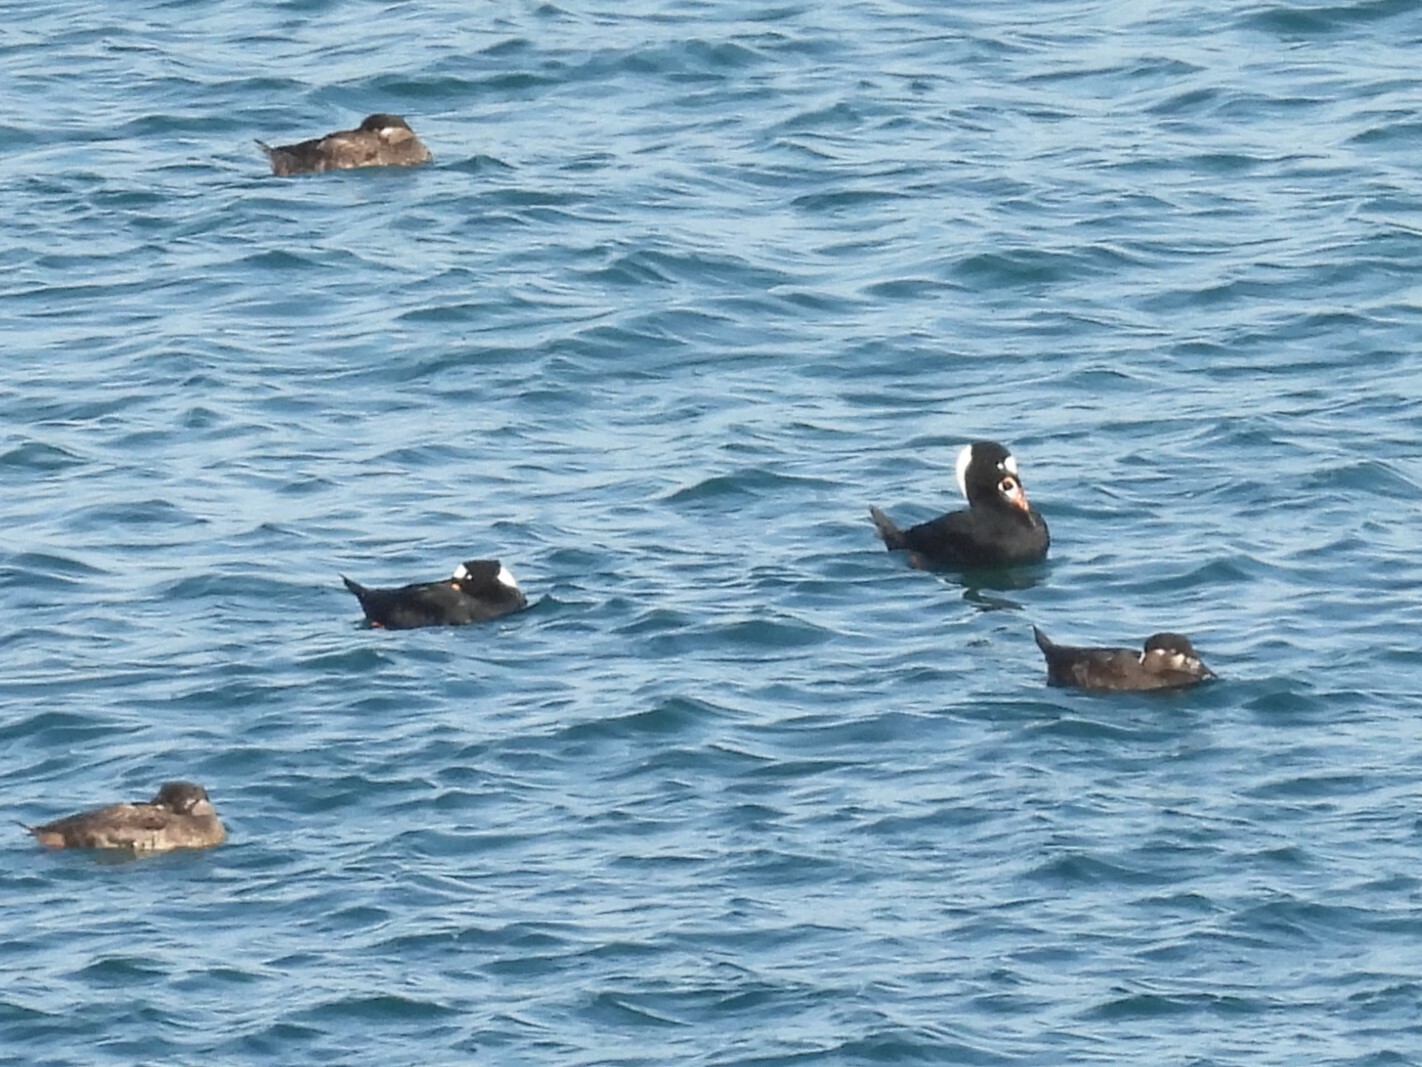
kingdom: Animalia
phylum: Chordata
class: Aves
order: Anseriformes
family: Anatidae
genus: Melanitta
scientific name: Melanitta perspicillata
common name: Surf scoter
